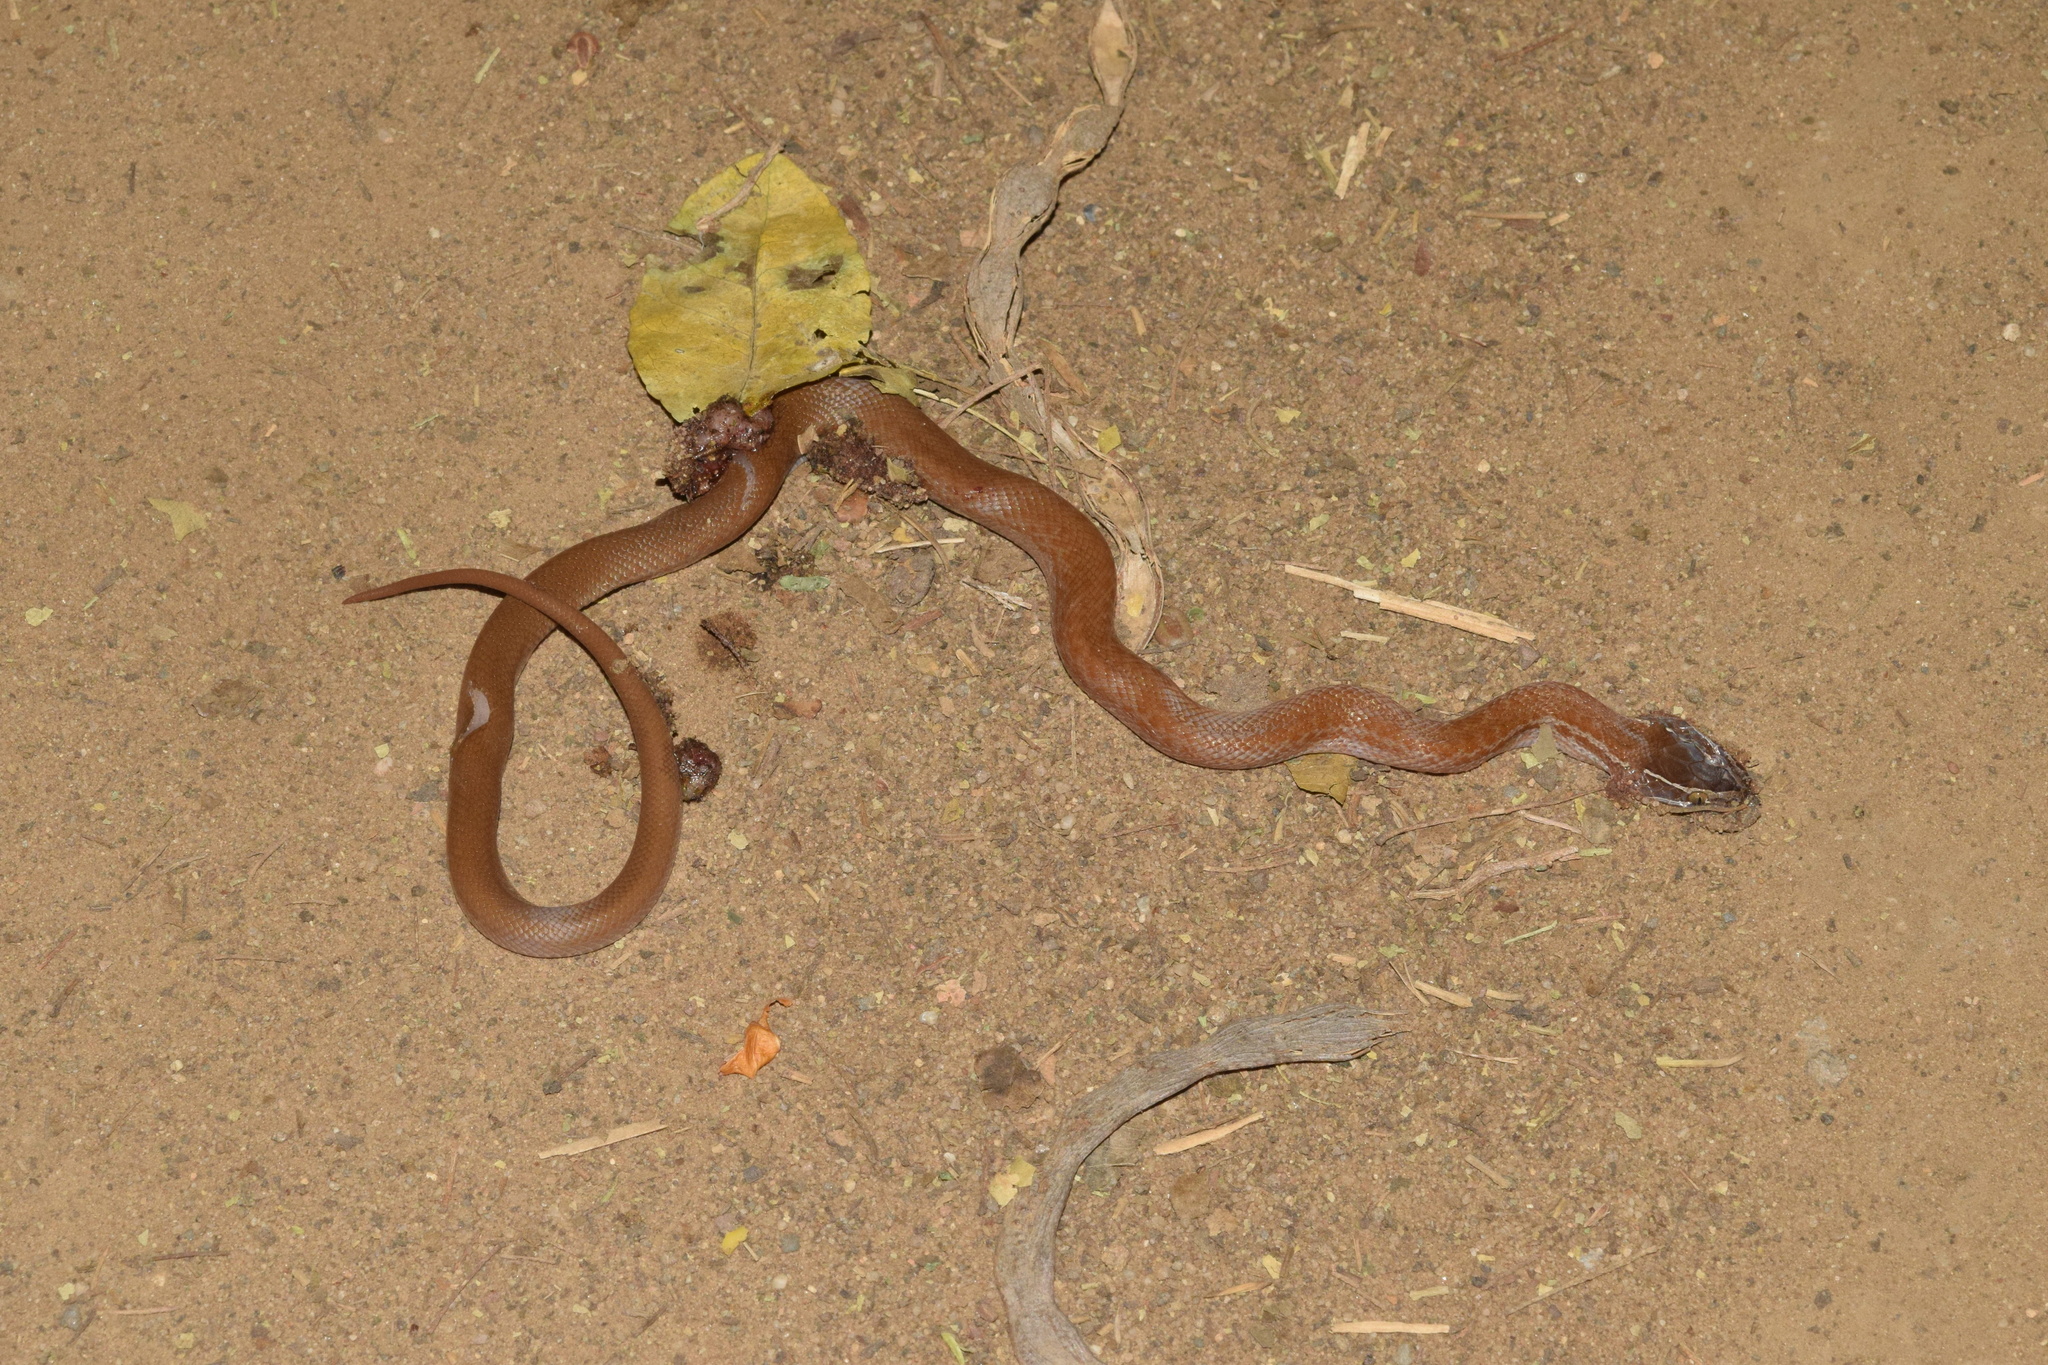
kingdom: Animalia
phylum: Chordata
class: Squamata
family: Lamprophiidae
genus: Boaedon
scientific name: Boaedon capensis
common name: Brown house snake
